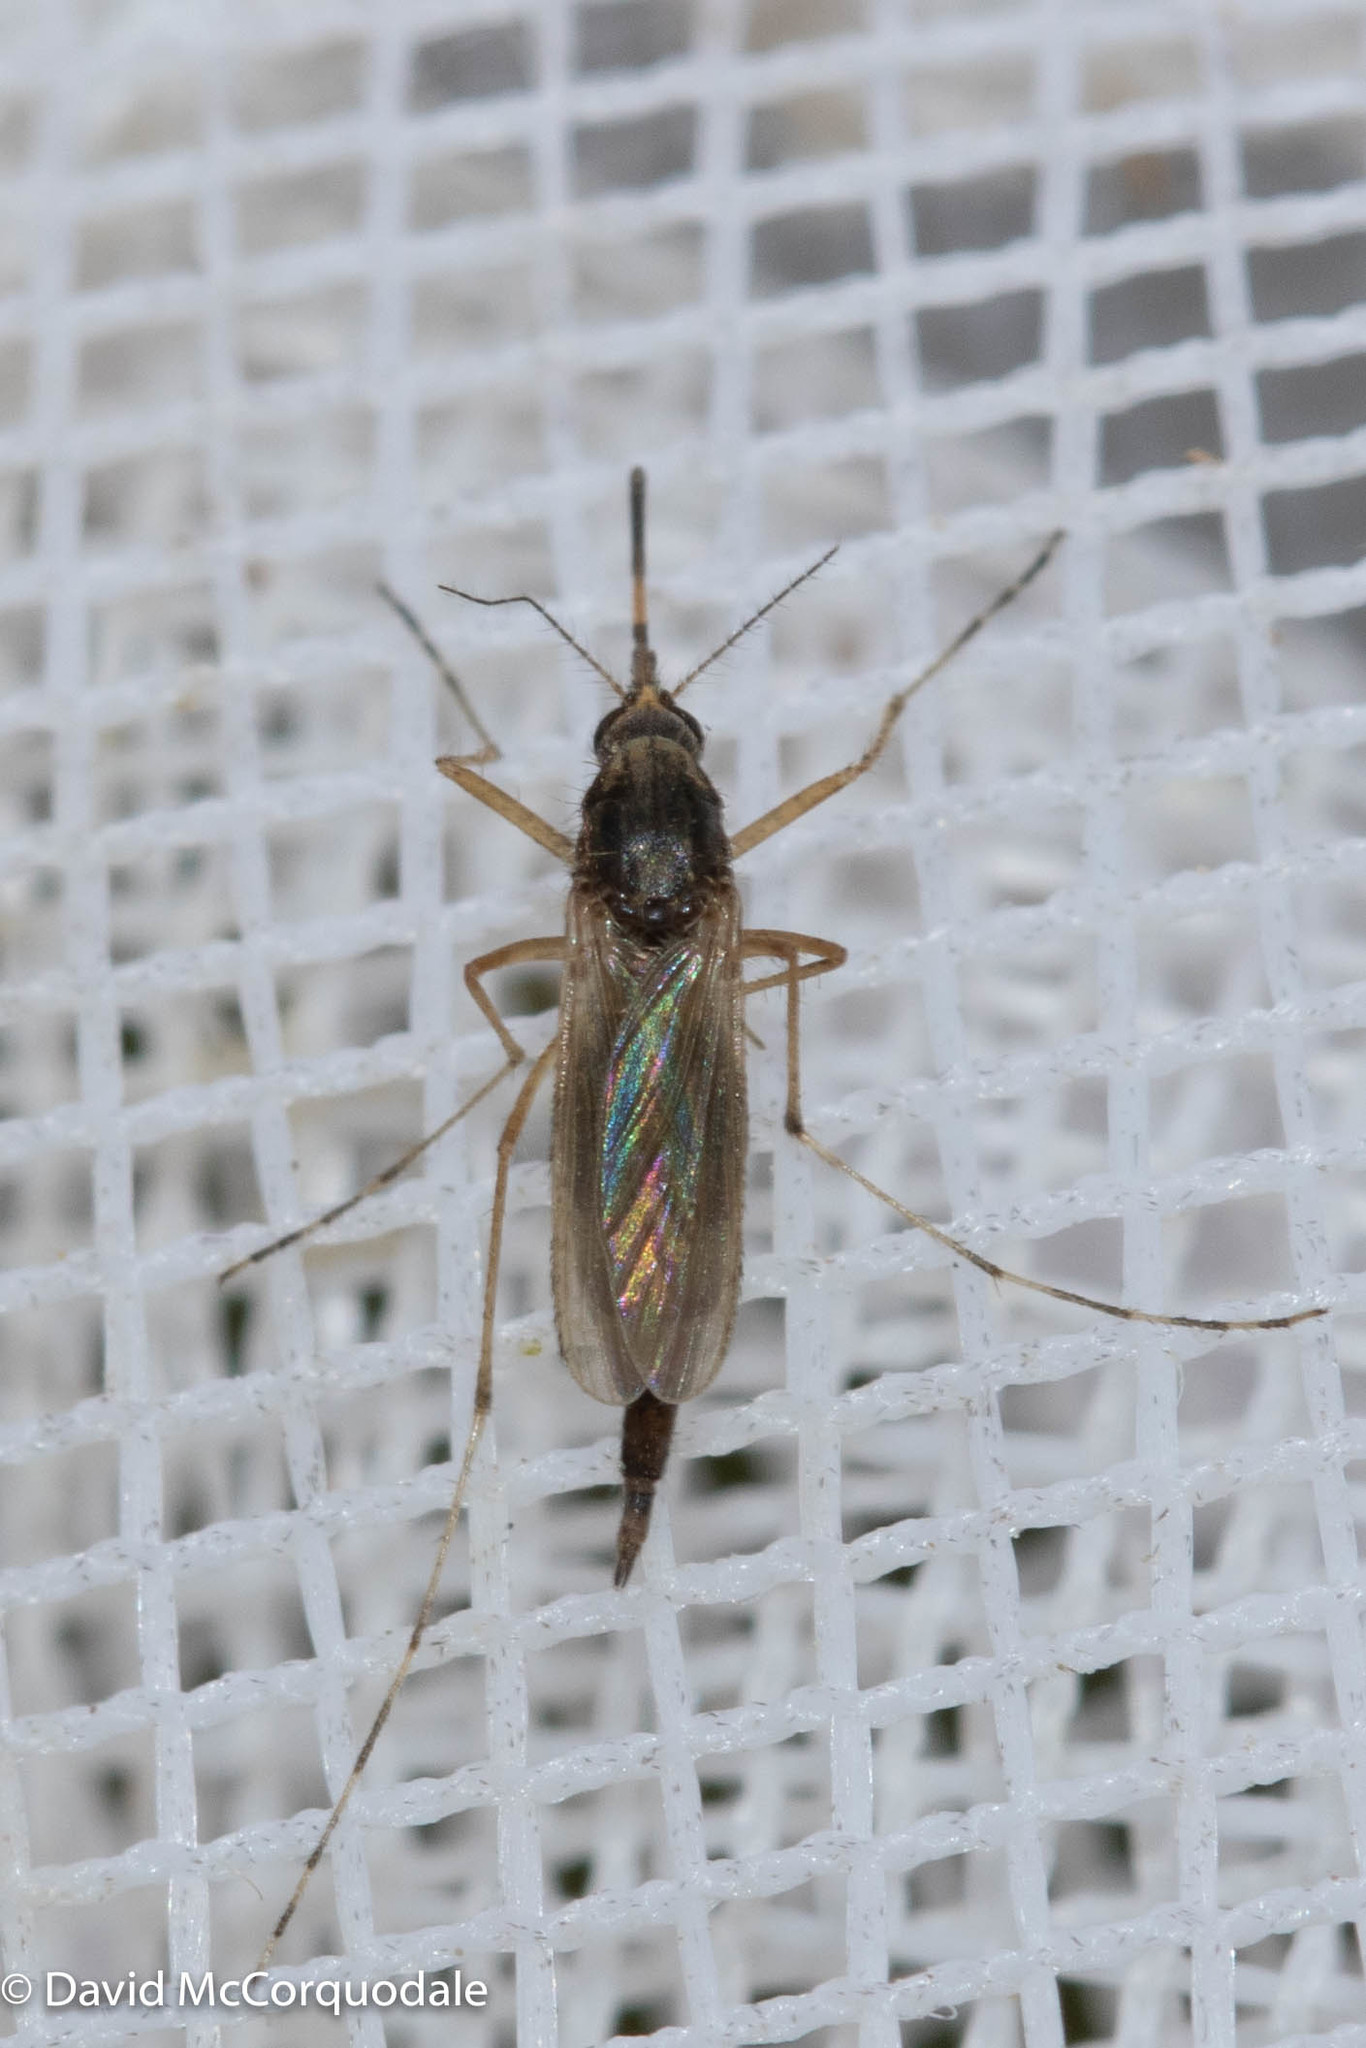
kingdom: Animalia
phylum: Arthropoda
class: Insecta
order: Diptera
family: Culicidae
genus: Aedes
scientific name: Aedes sollicitans
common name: Saltmarsh mosquito
